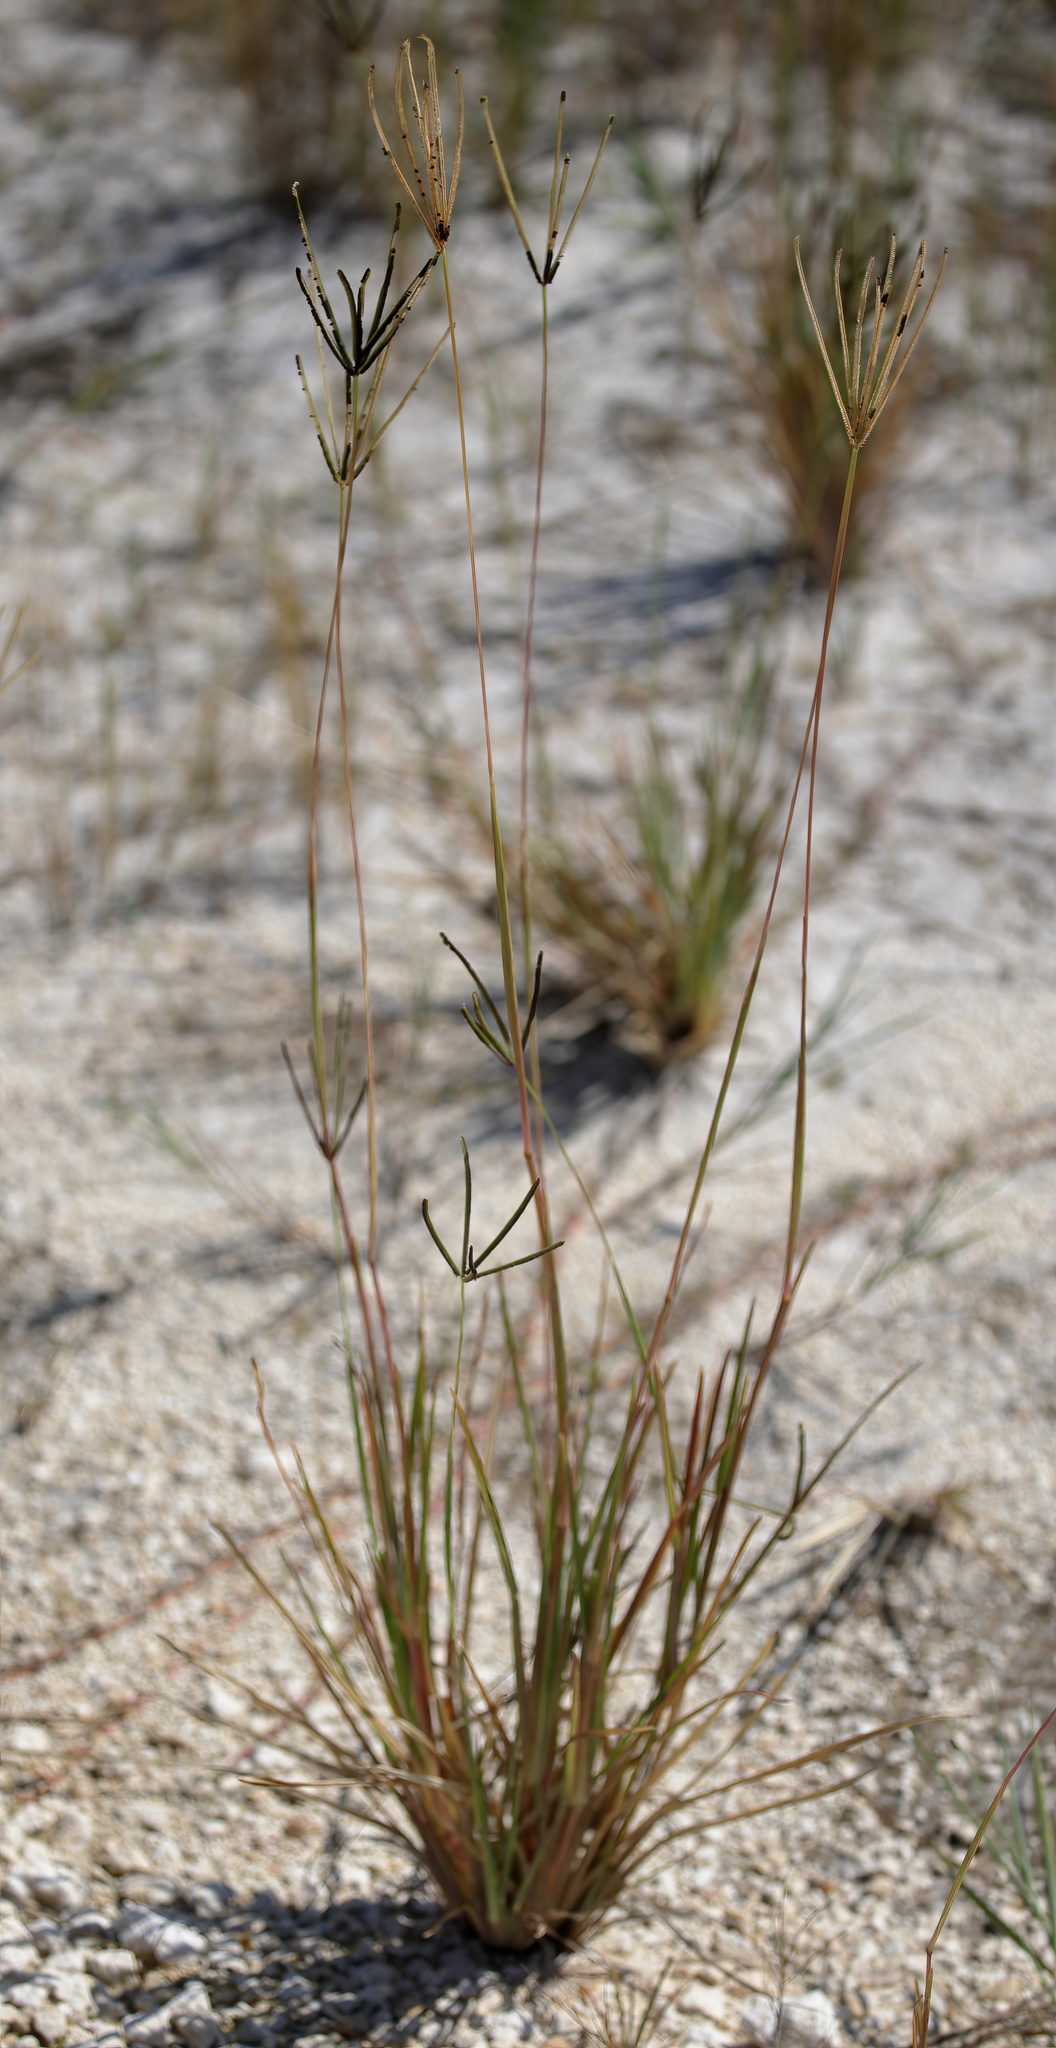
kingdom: Plantae
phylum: Tracheophyta
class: Liliopsida
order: Poales
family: Poaceae
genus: Eustachys
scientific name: Eustachys petraea
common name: Pinewoods fingergrass
